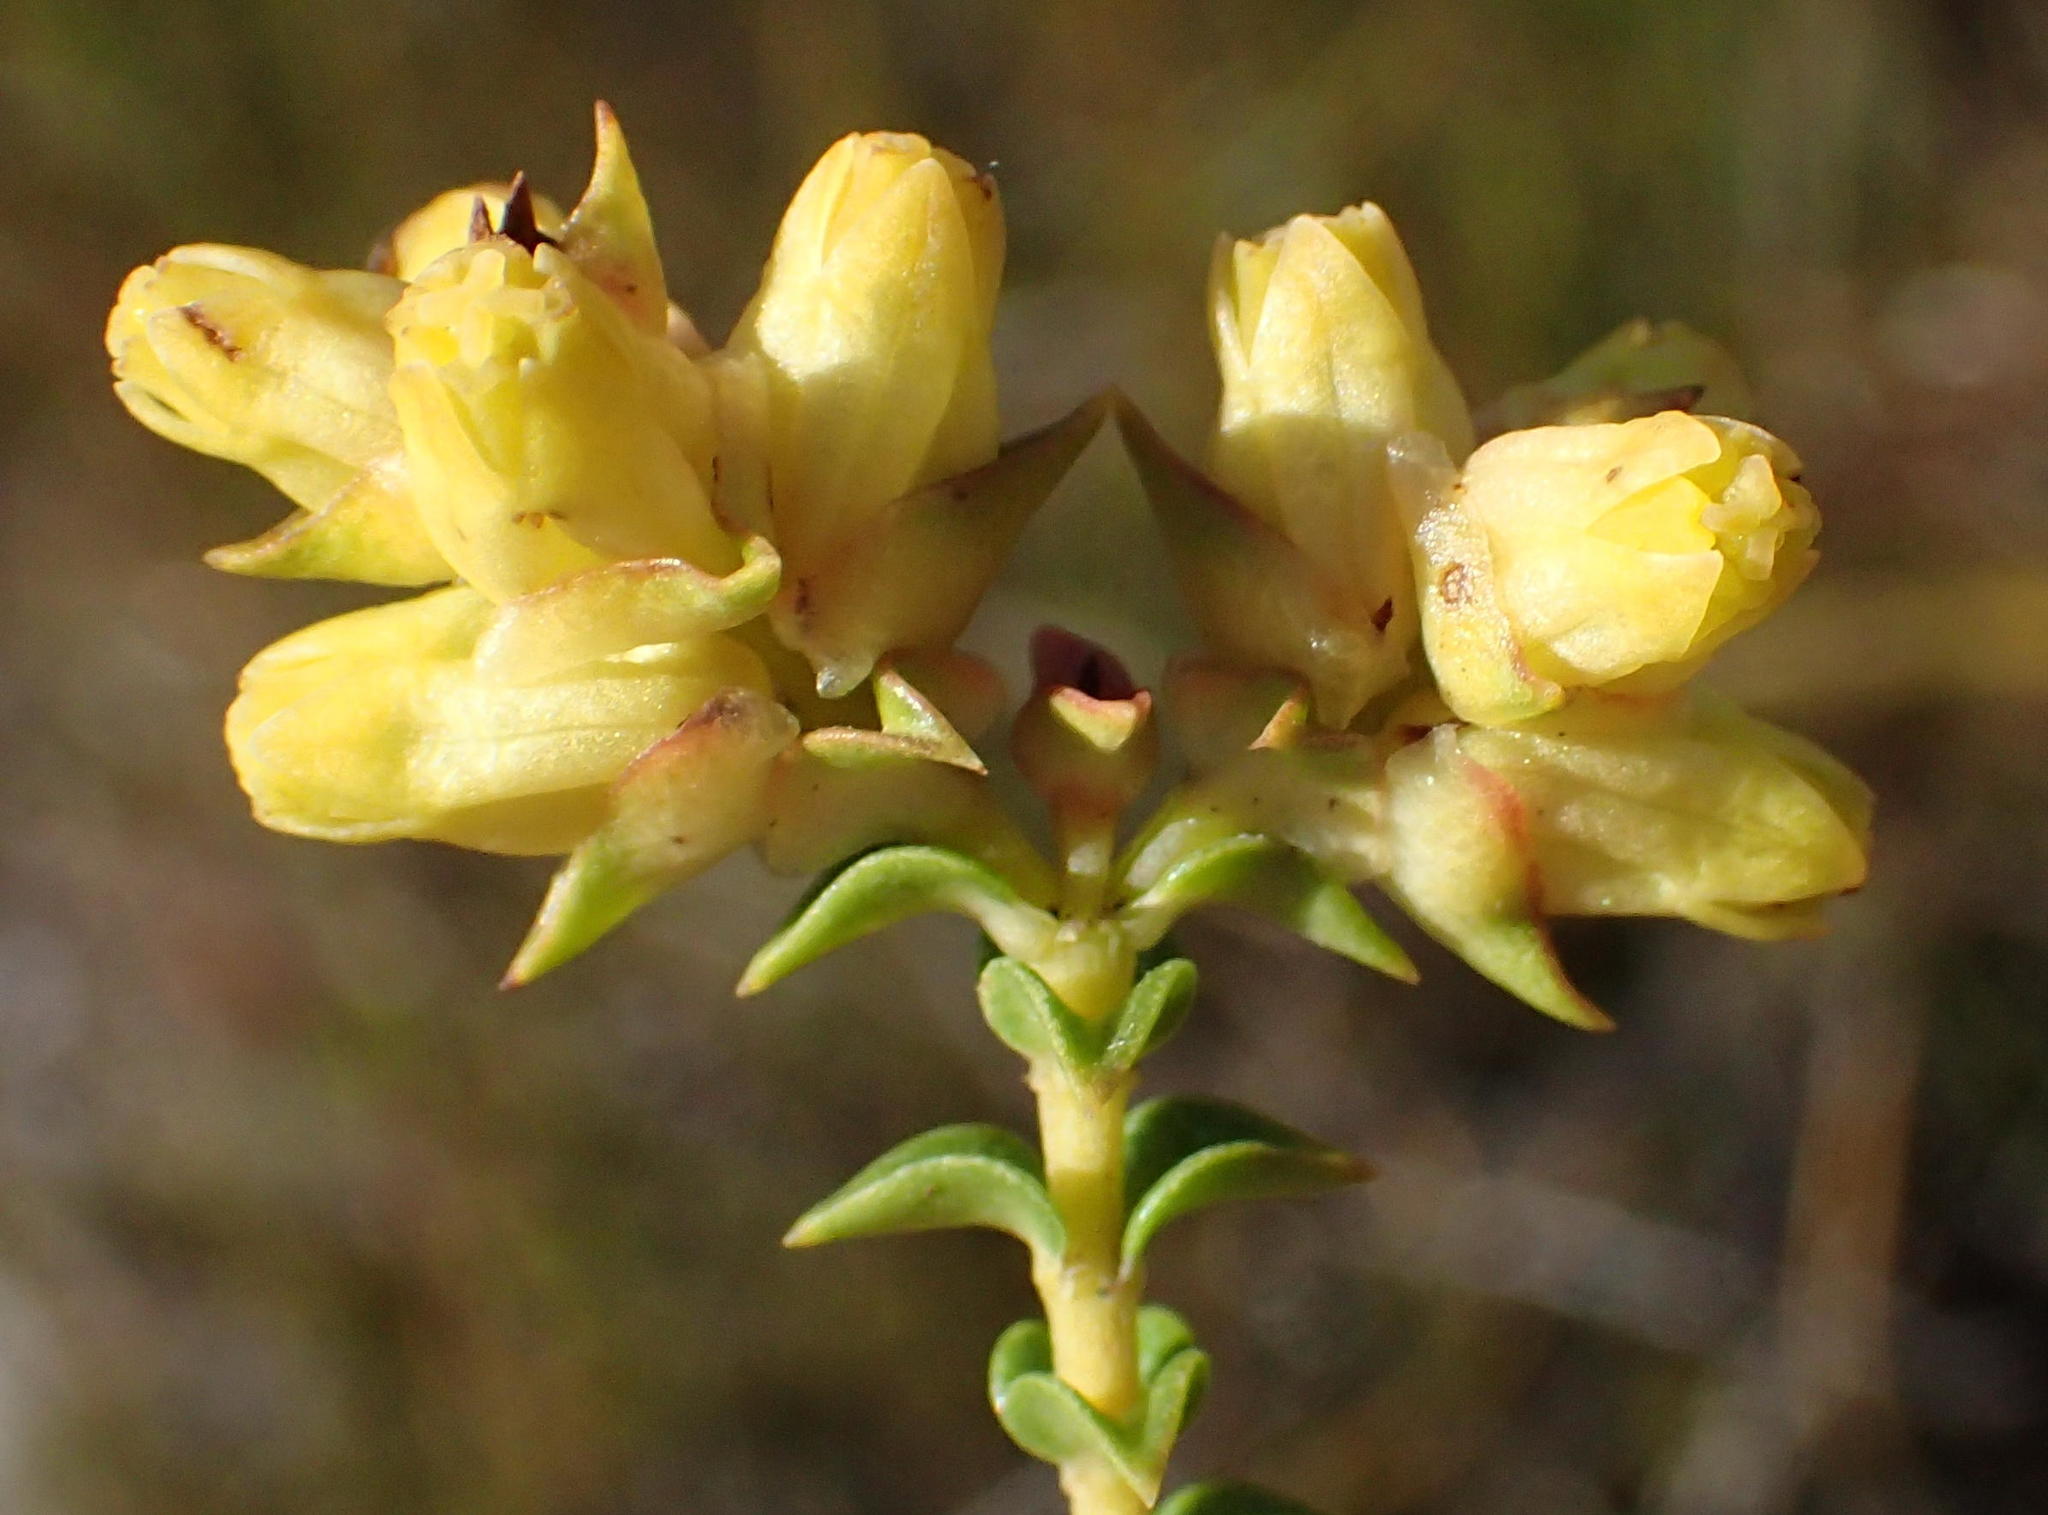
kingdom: Plantae
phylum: Tracheophyta
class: Magnoliopsida
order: Myrtales
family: Penaeaceae
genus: Penaea
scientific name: Penaea mucronata
